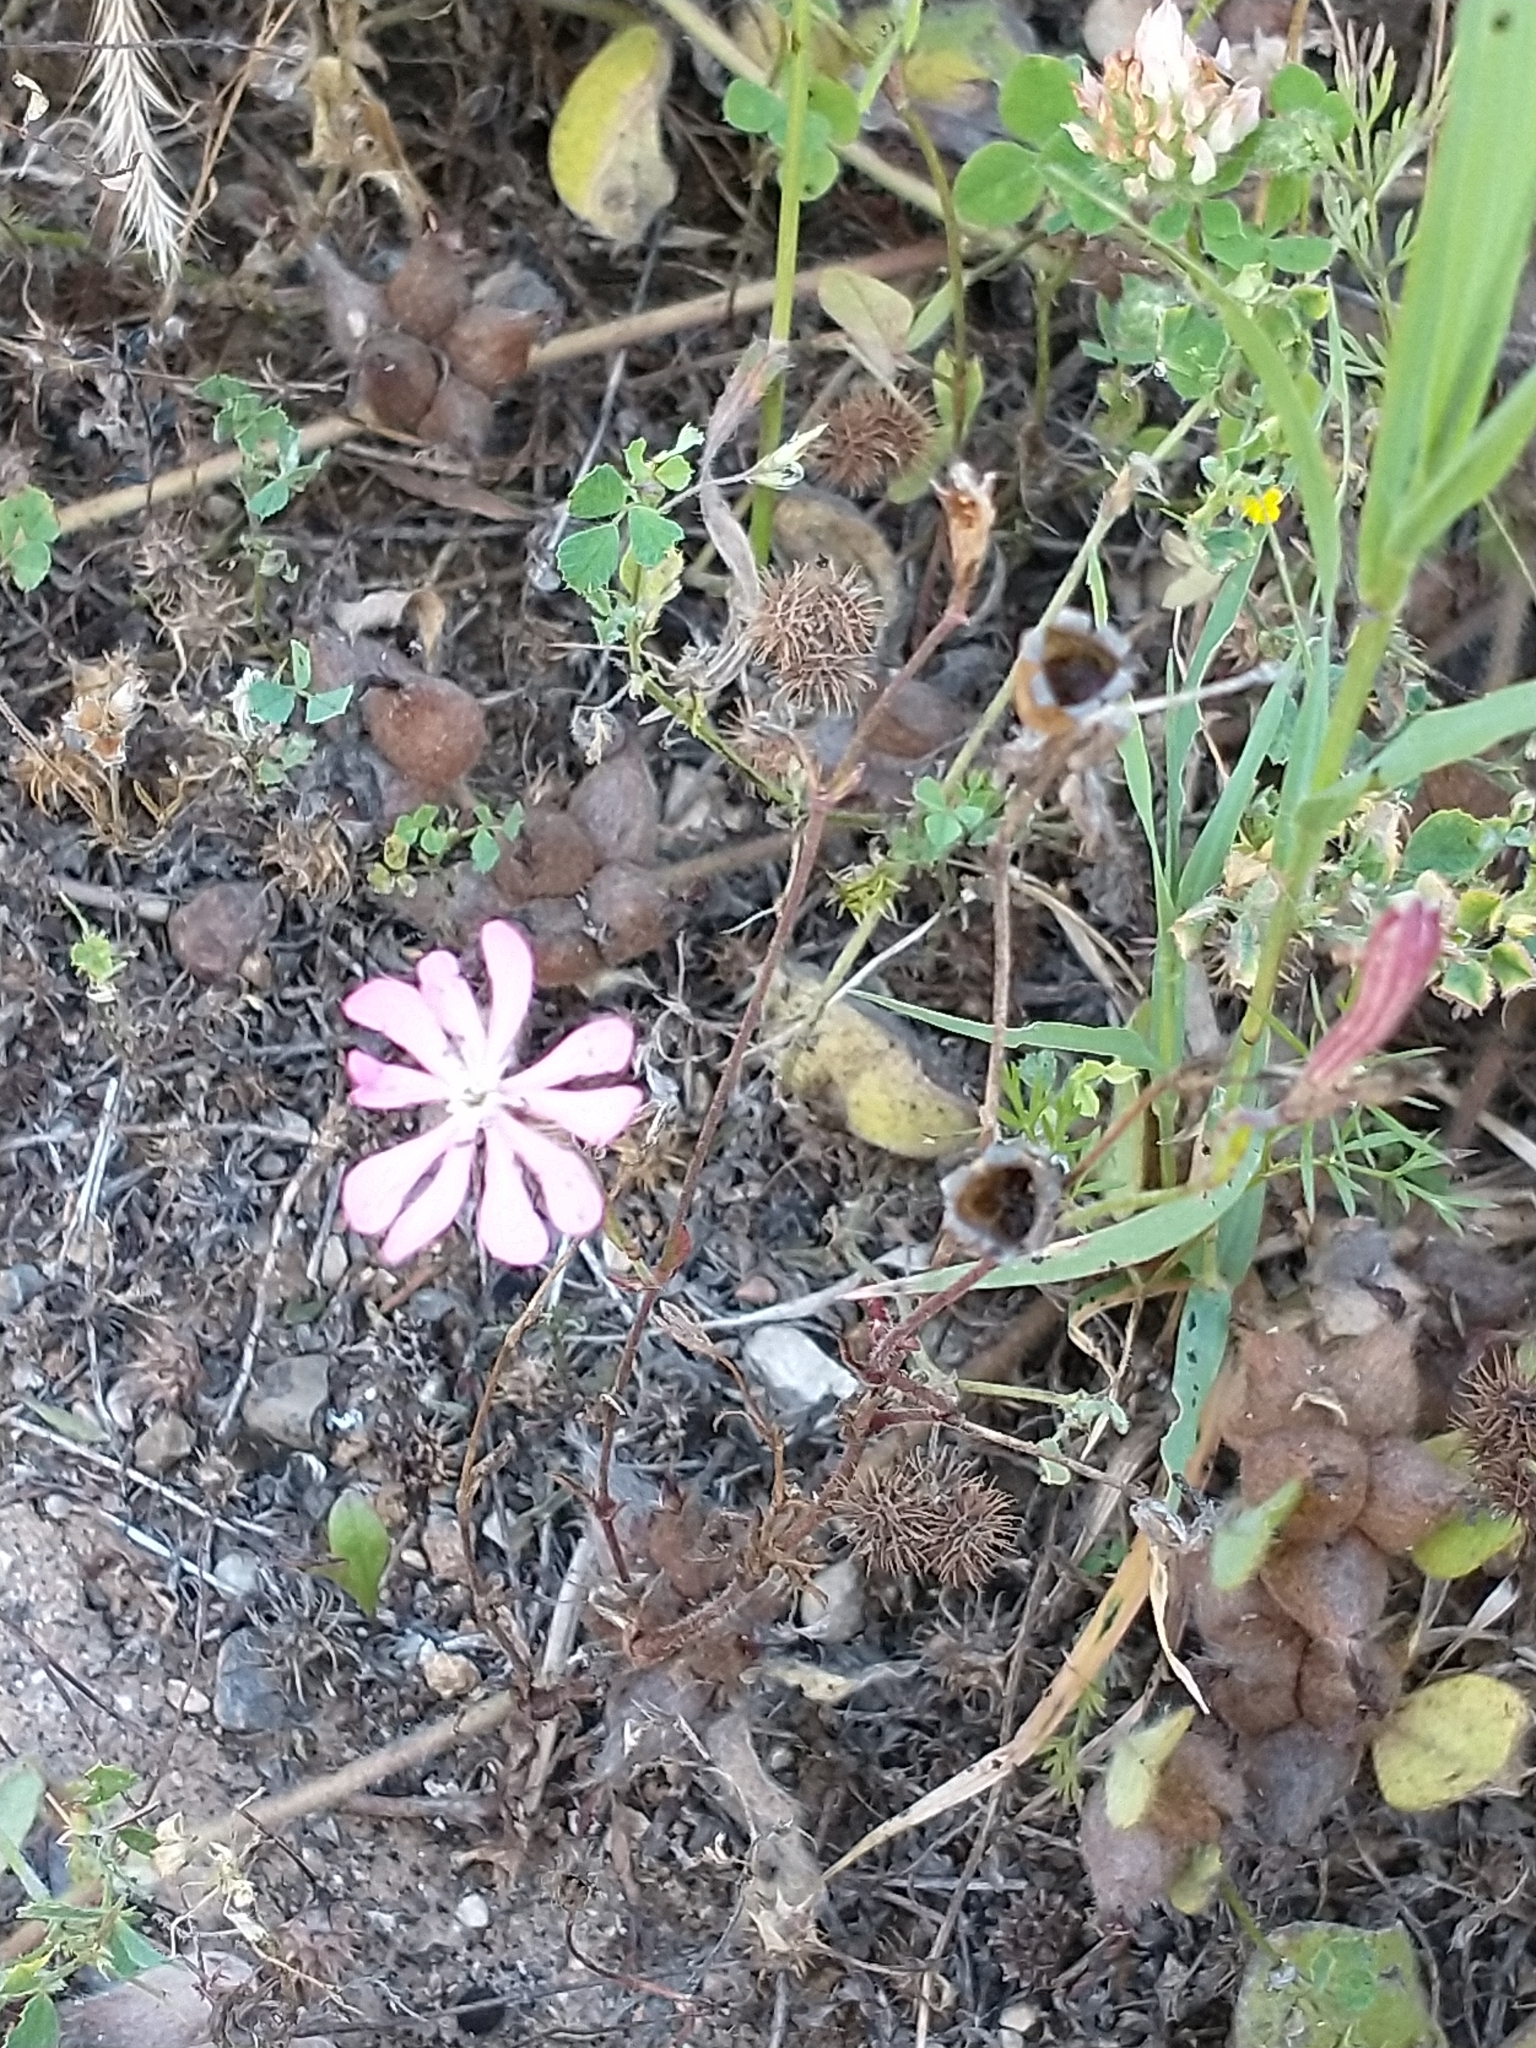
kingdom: Plantae
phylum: Tracheophyta
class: Magnoliopsida
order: Caryophyllales
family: Caryophyllaceae
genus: Silene
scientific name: Silene colorata
